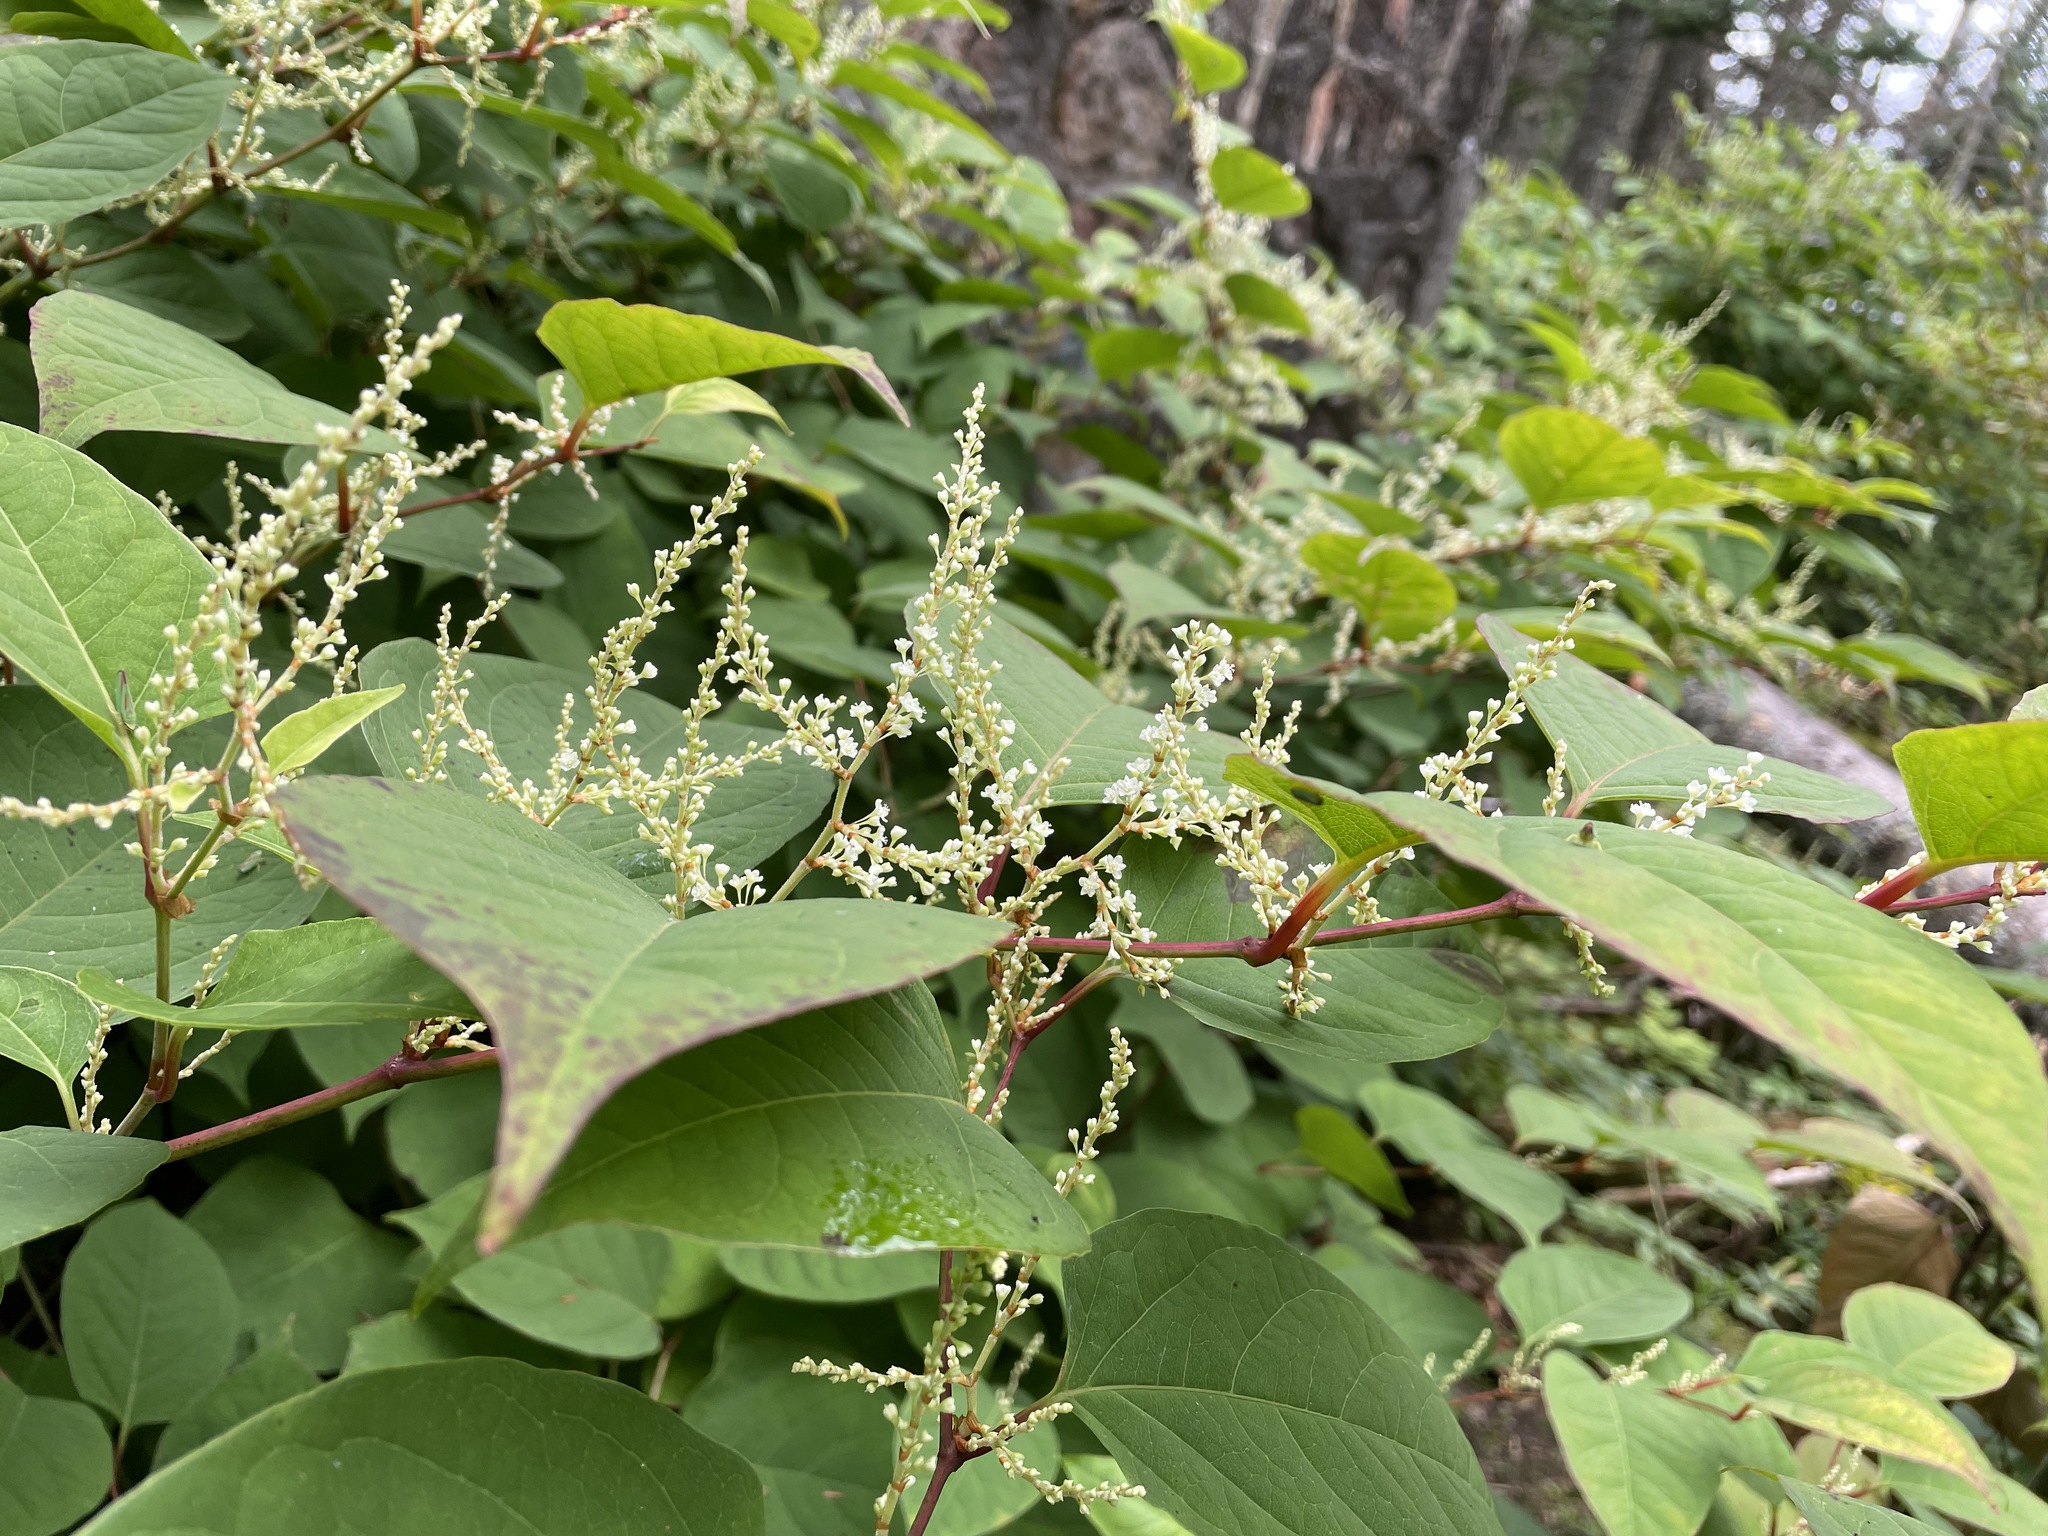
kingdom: Plantae
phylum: Tracheophyta
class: Magnoliopsida
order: Caryophyllales
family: Polygonaceae
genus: Reynoutria
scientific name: Reynoutria japonica
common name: Japanese knotweed
